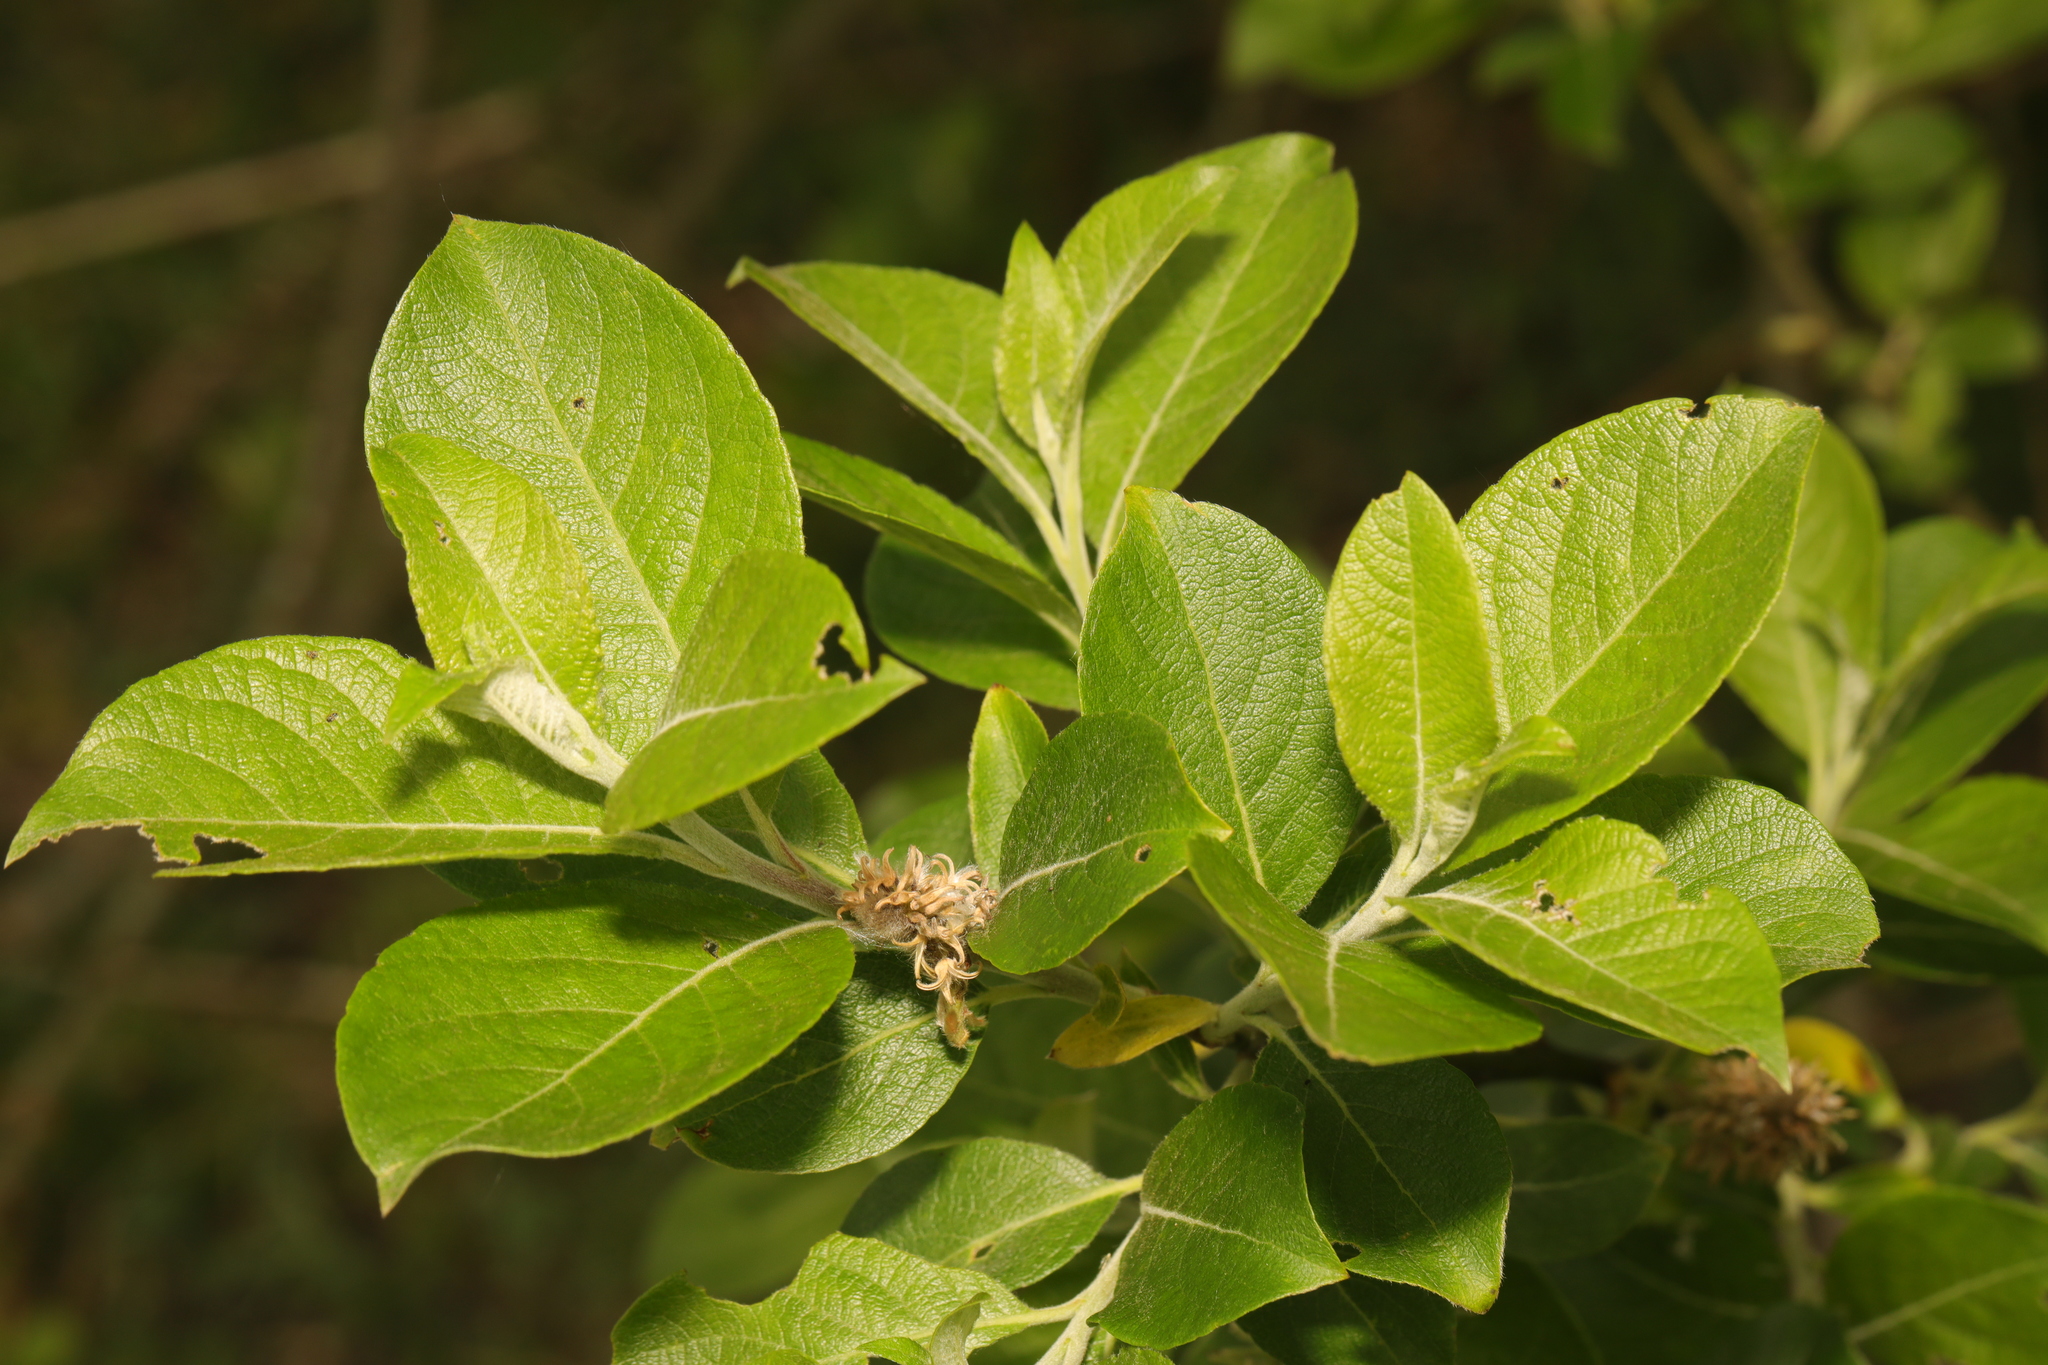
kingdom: Plantae
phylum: Tracheophyta
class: Magnoliopsida
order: Malpighiales
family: Salicaceae
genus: Salix
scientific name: Salix caprea
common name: Goat willow
